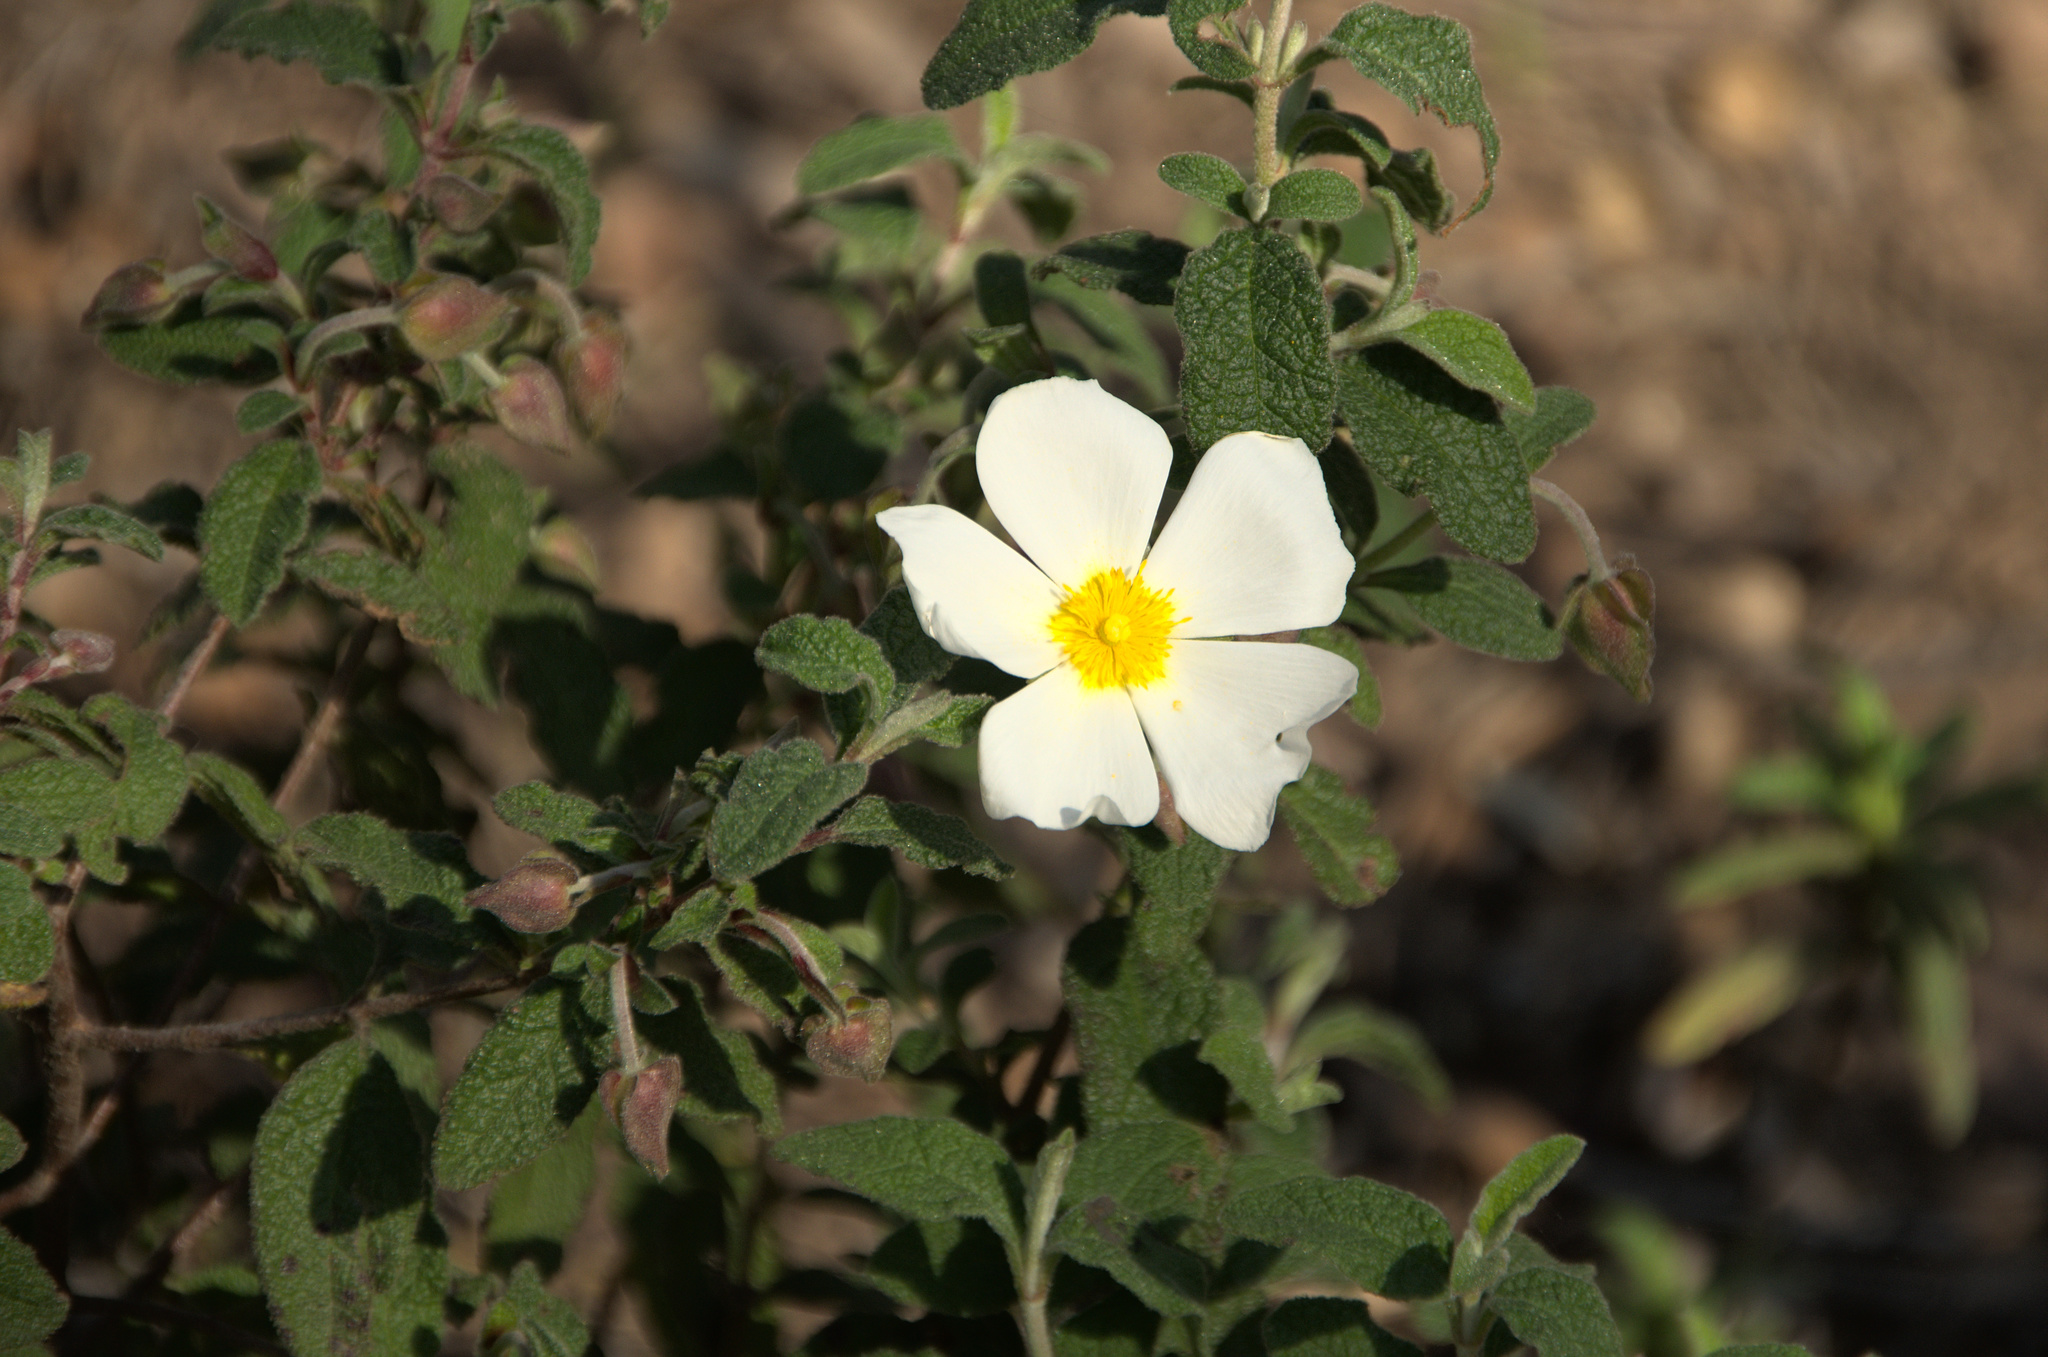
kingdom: Plantae
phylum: Tracheophyta
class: Magnoliopsida
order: Malvales
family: Cistaceae
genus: Cistus
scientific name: Cistus salviifolius
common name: Salvia cistus
